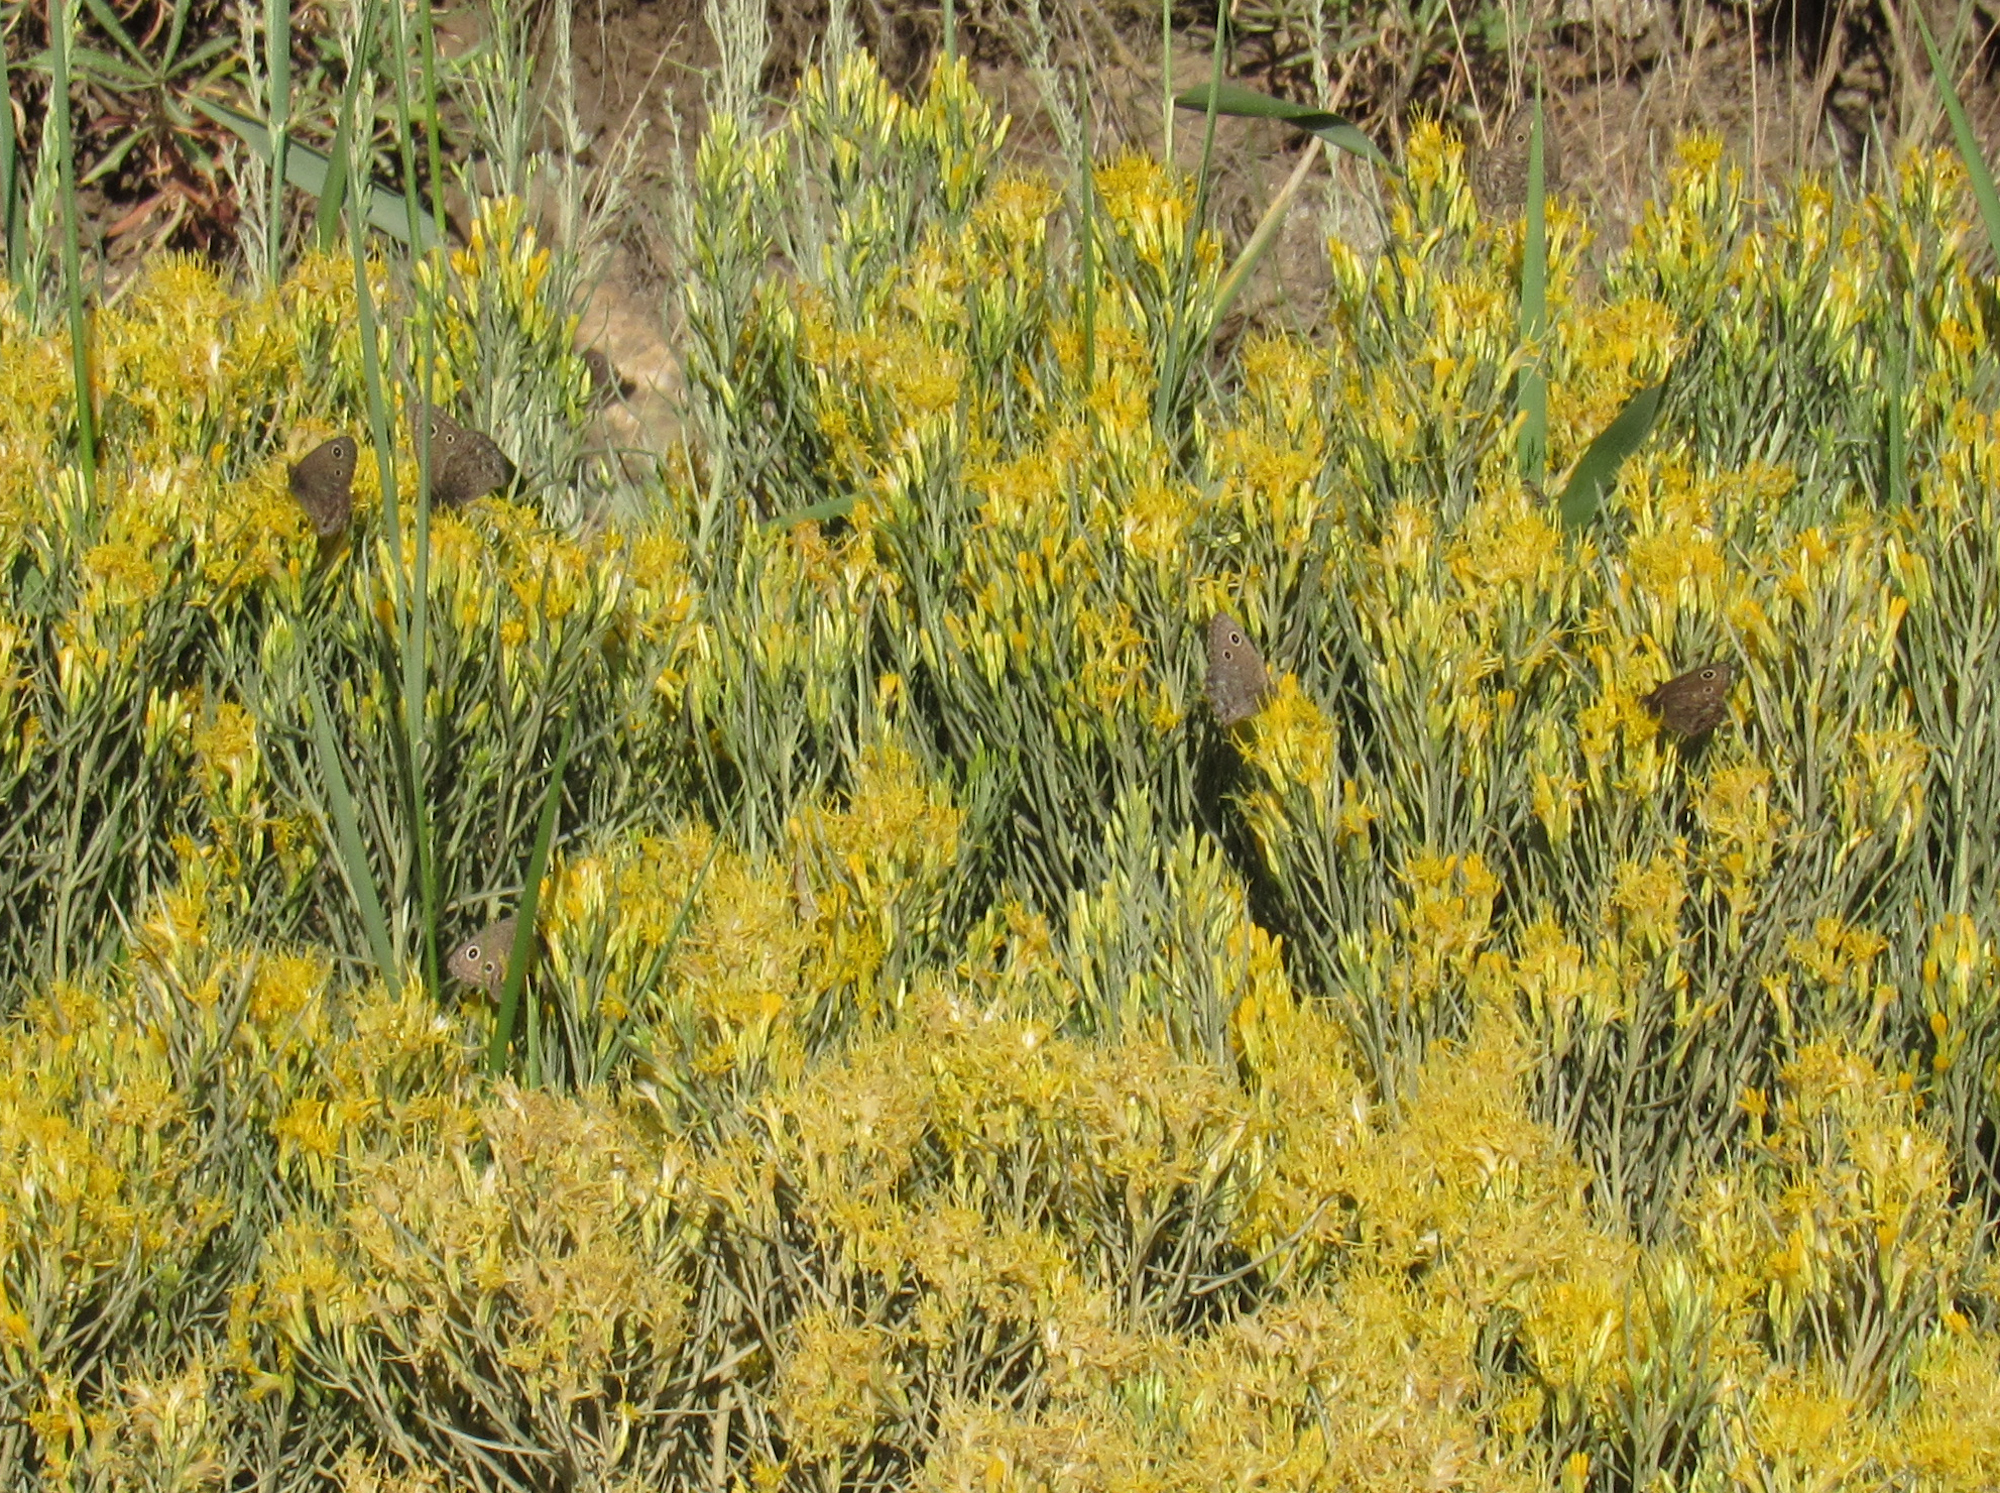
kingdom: Animalia
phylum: Arthropoda
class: Insecta
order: Lepidoptera
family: Nymphalidae
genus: Cercyonis
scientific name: Cercyonis oetus
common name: Small wood-nymph
